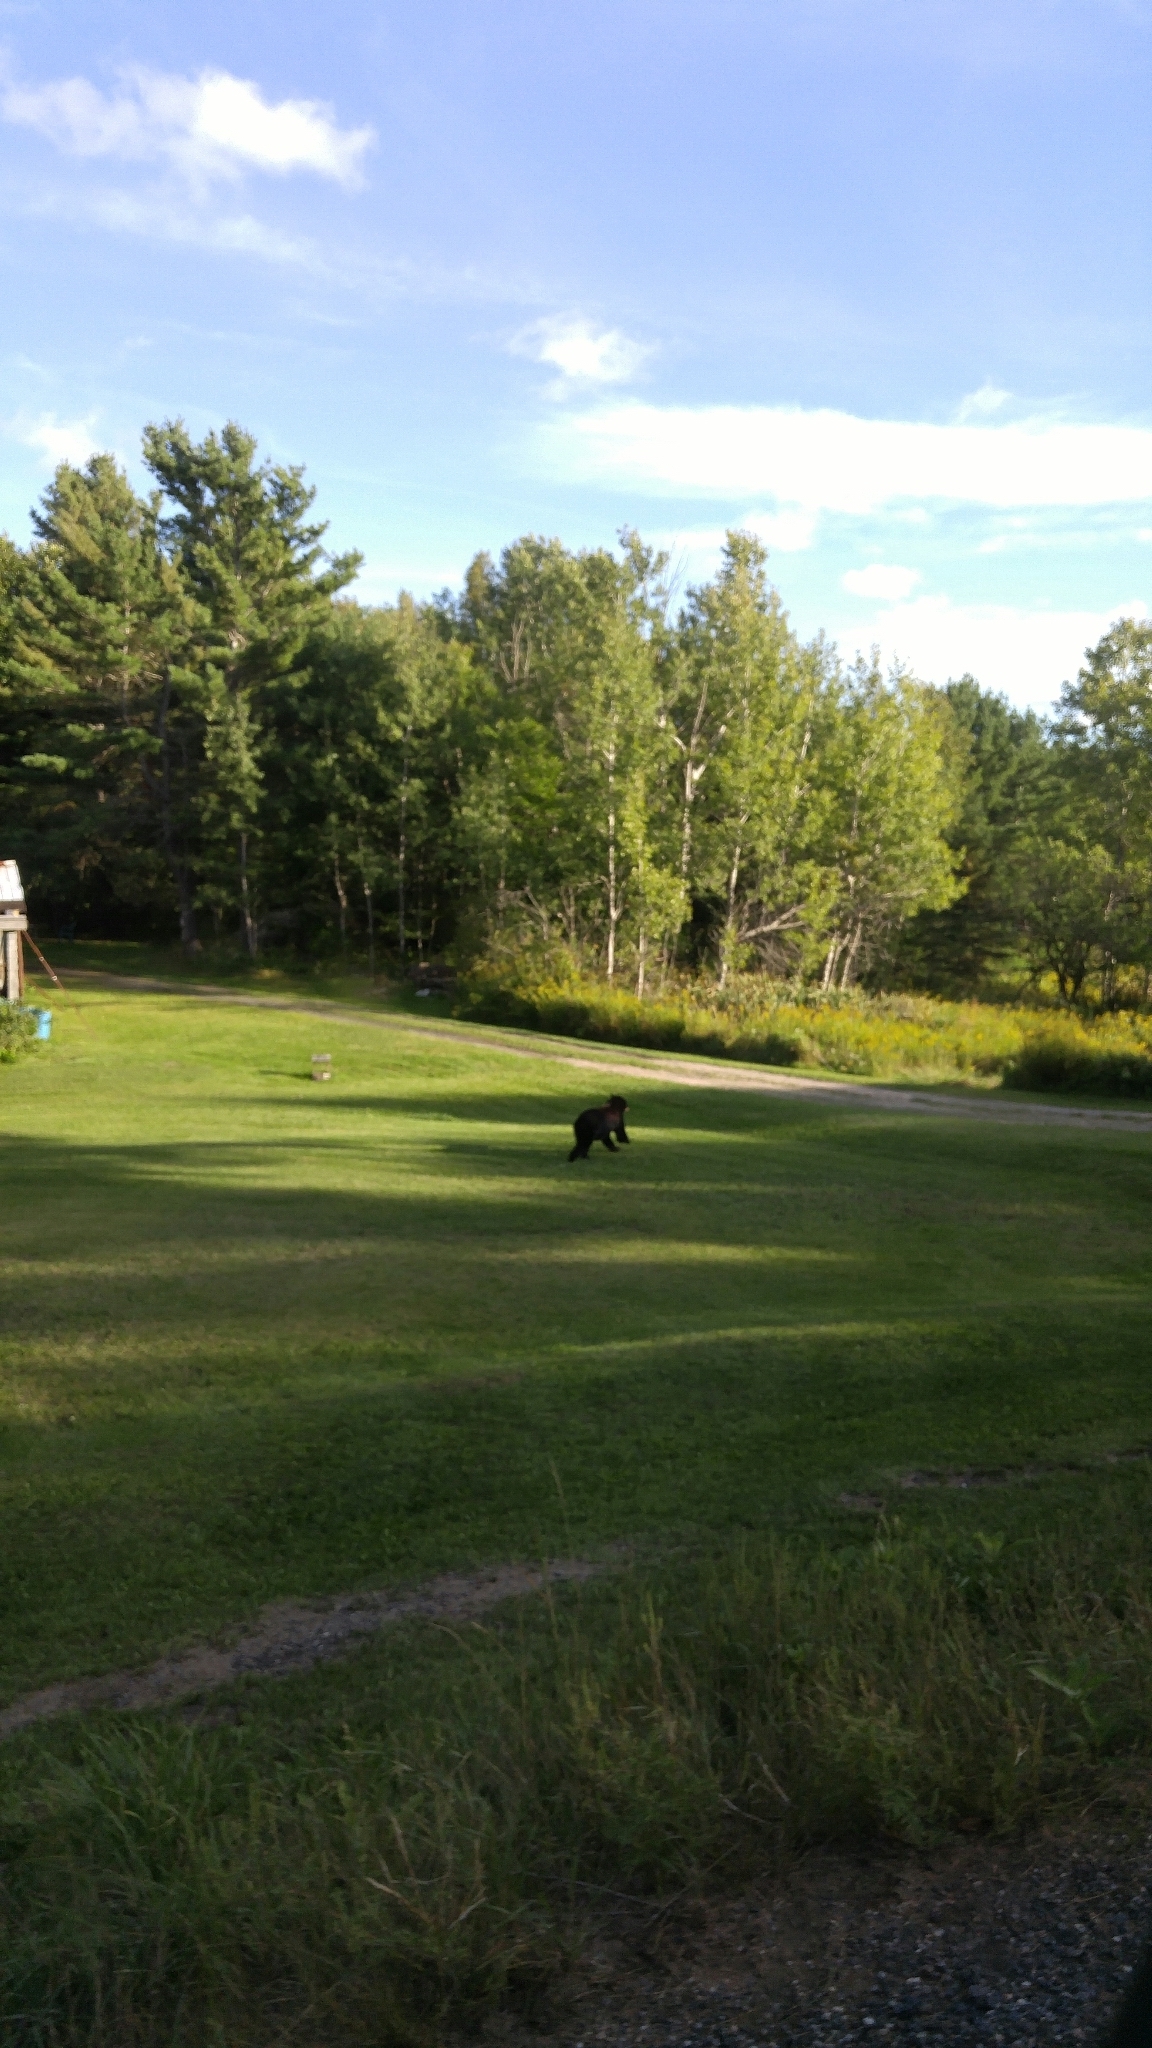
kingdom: Animalia
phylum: Chordata
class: Mammalia
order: Carnivora
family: Ursidae
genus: Ursus
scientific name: Ursus americanus
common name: American black bear
